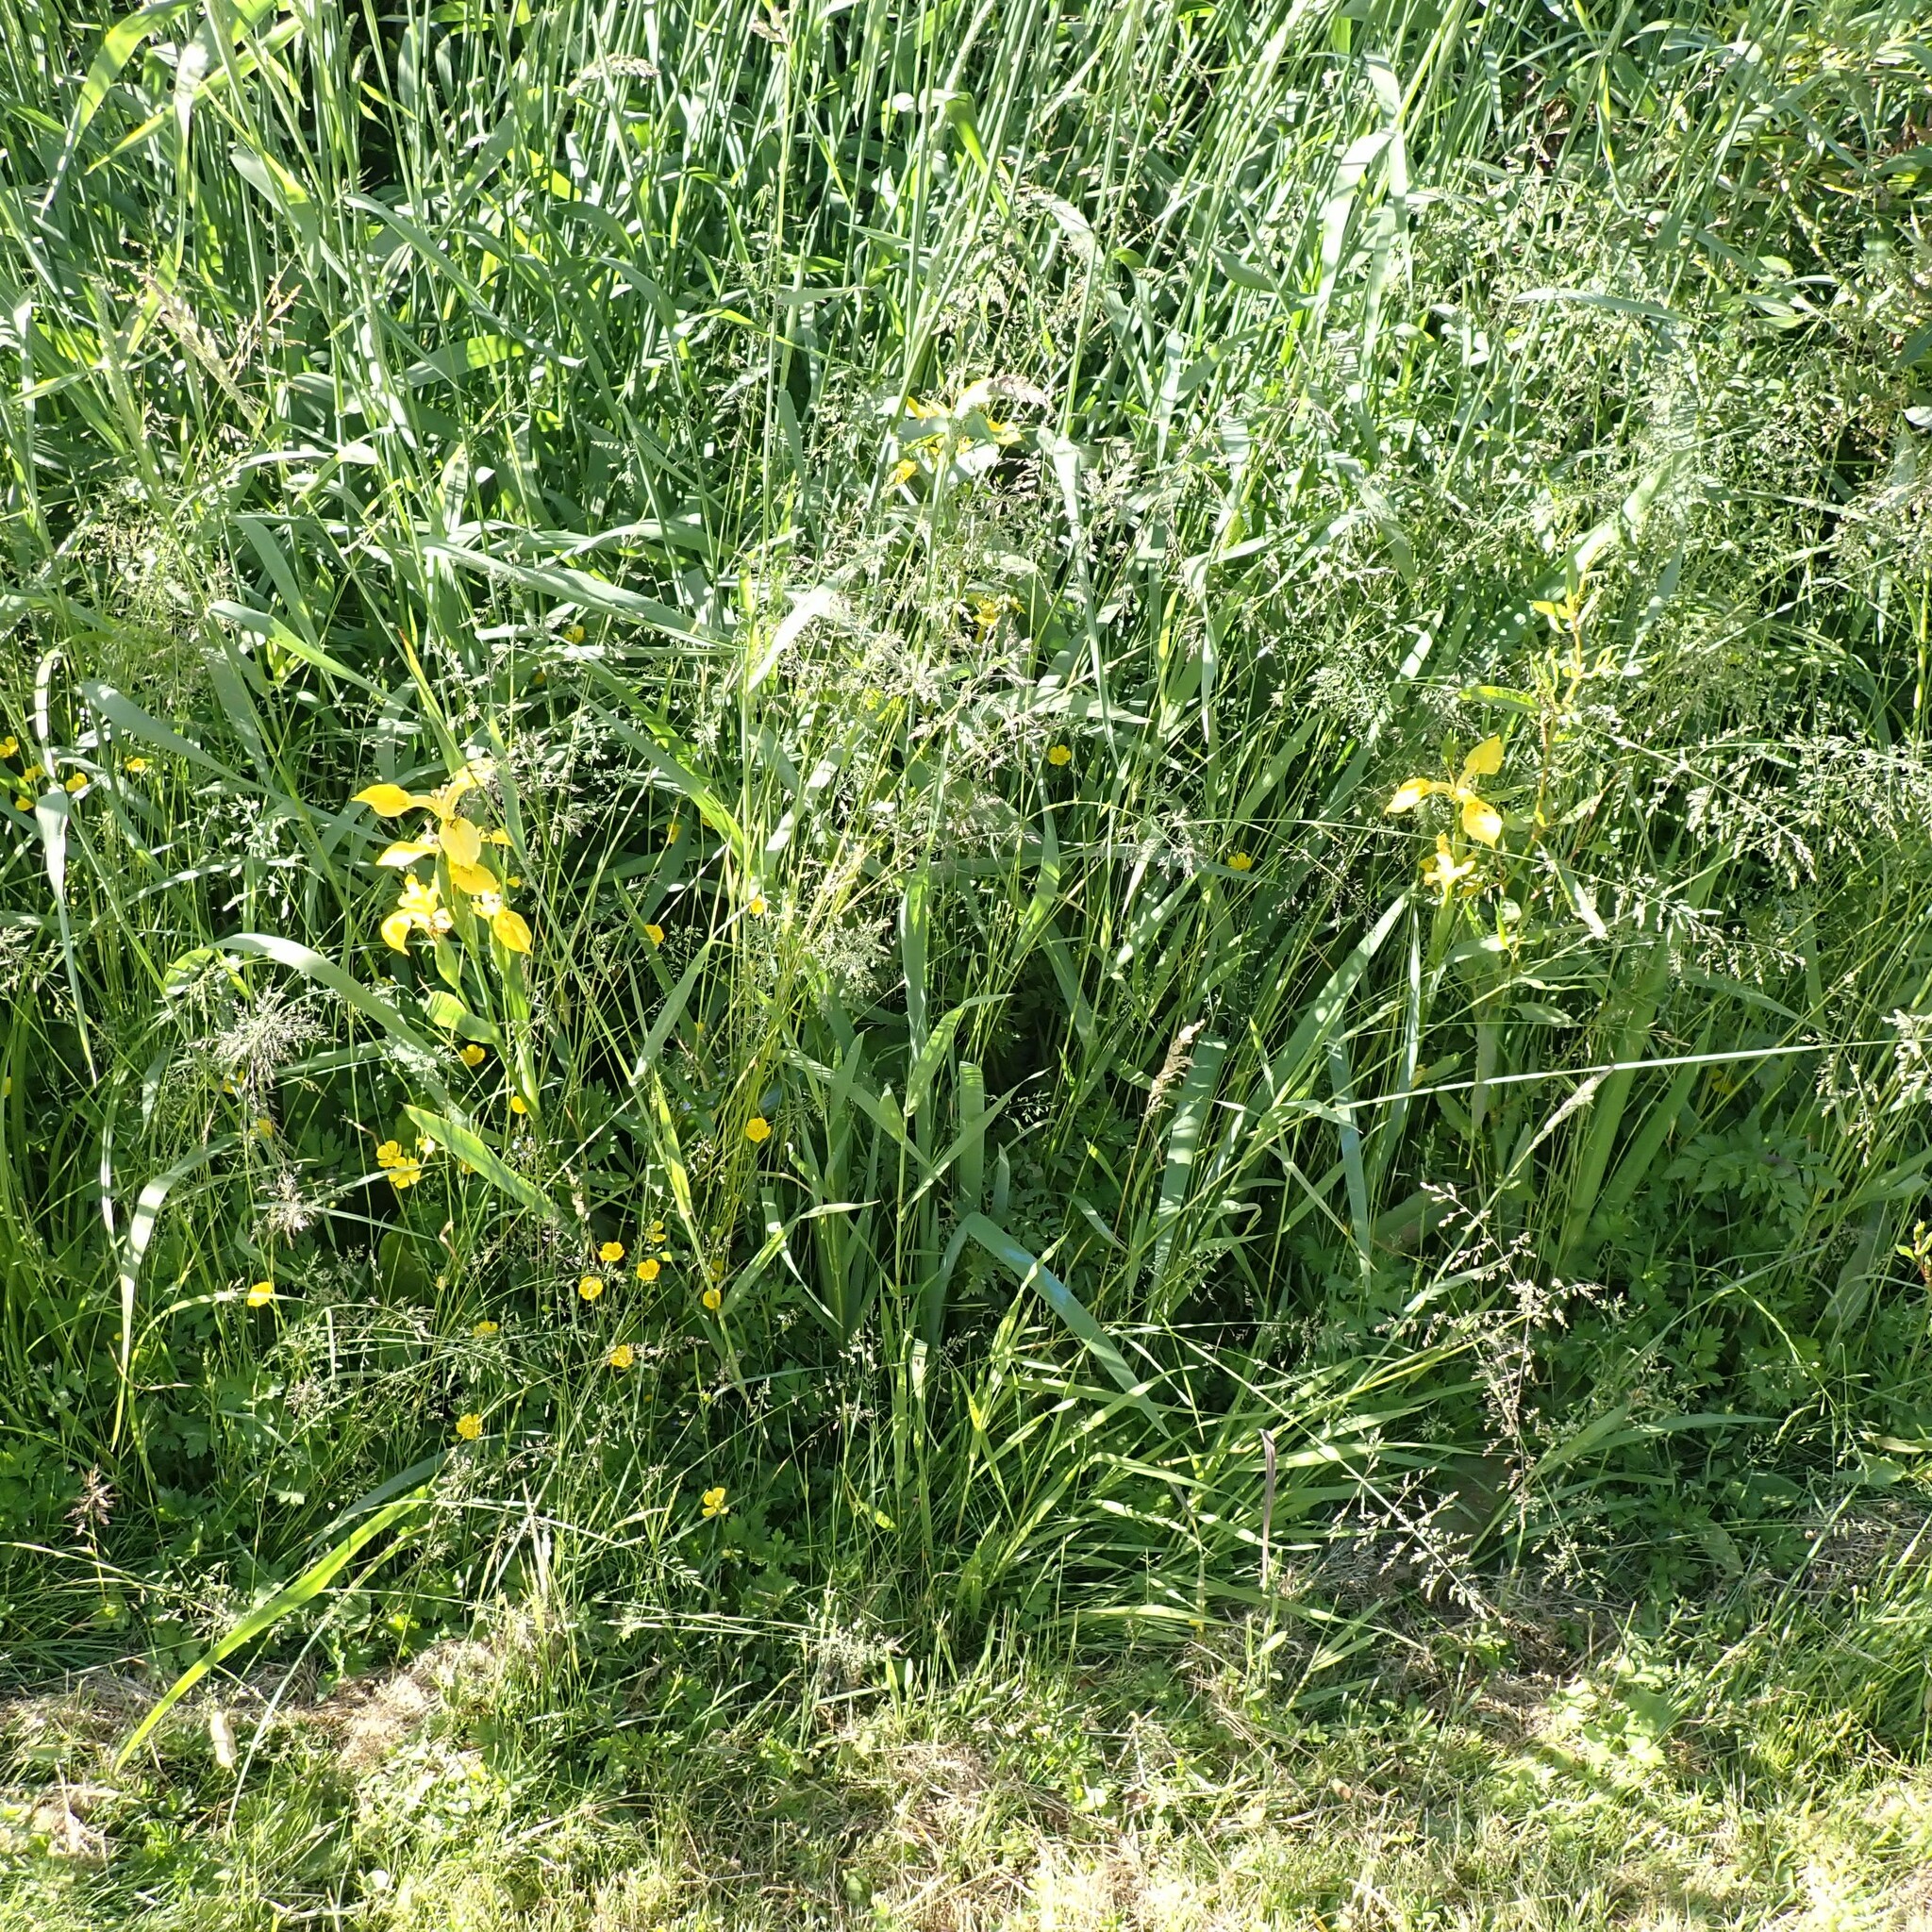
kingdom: Plantae
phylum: Tracheophyta
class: Liliopsida
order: Asparagales
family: Iridaceae
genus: Iris
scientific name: Iris pseudacorus
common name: Yellow flag
